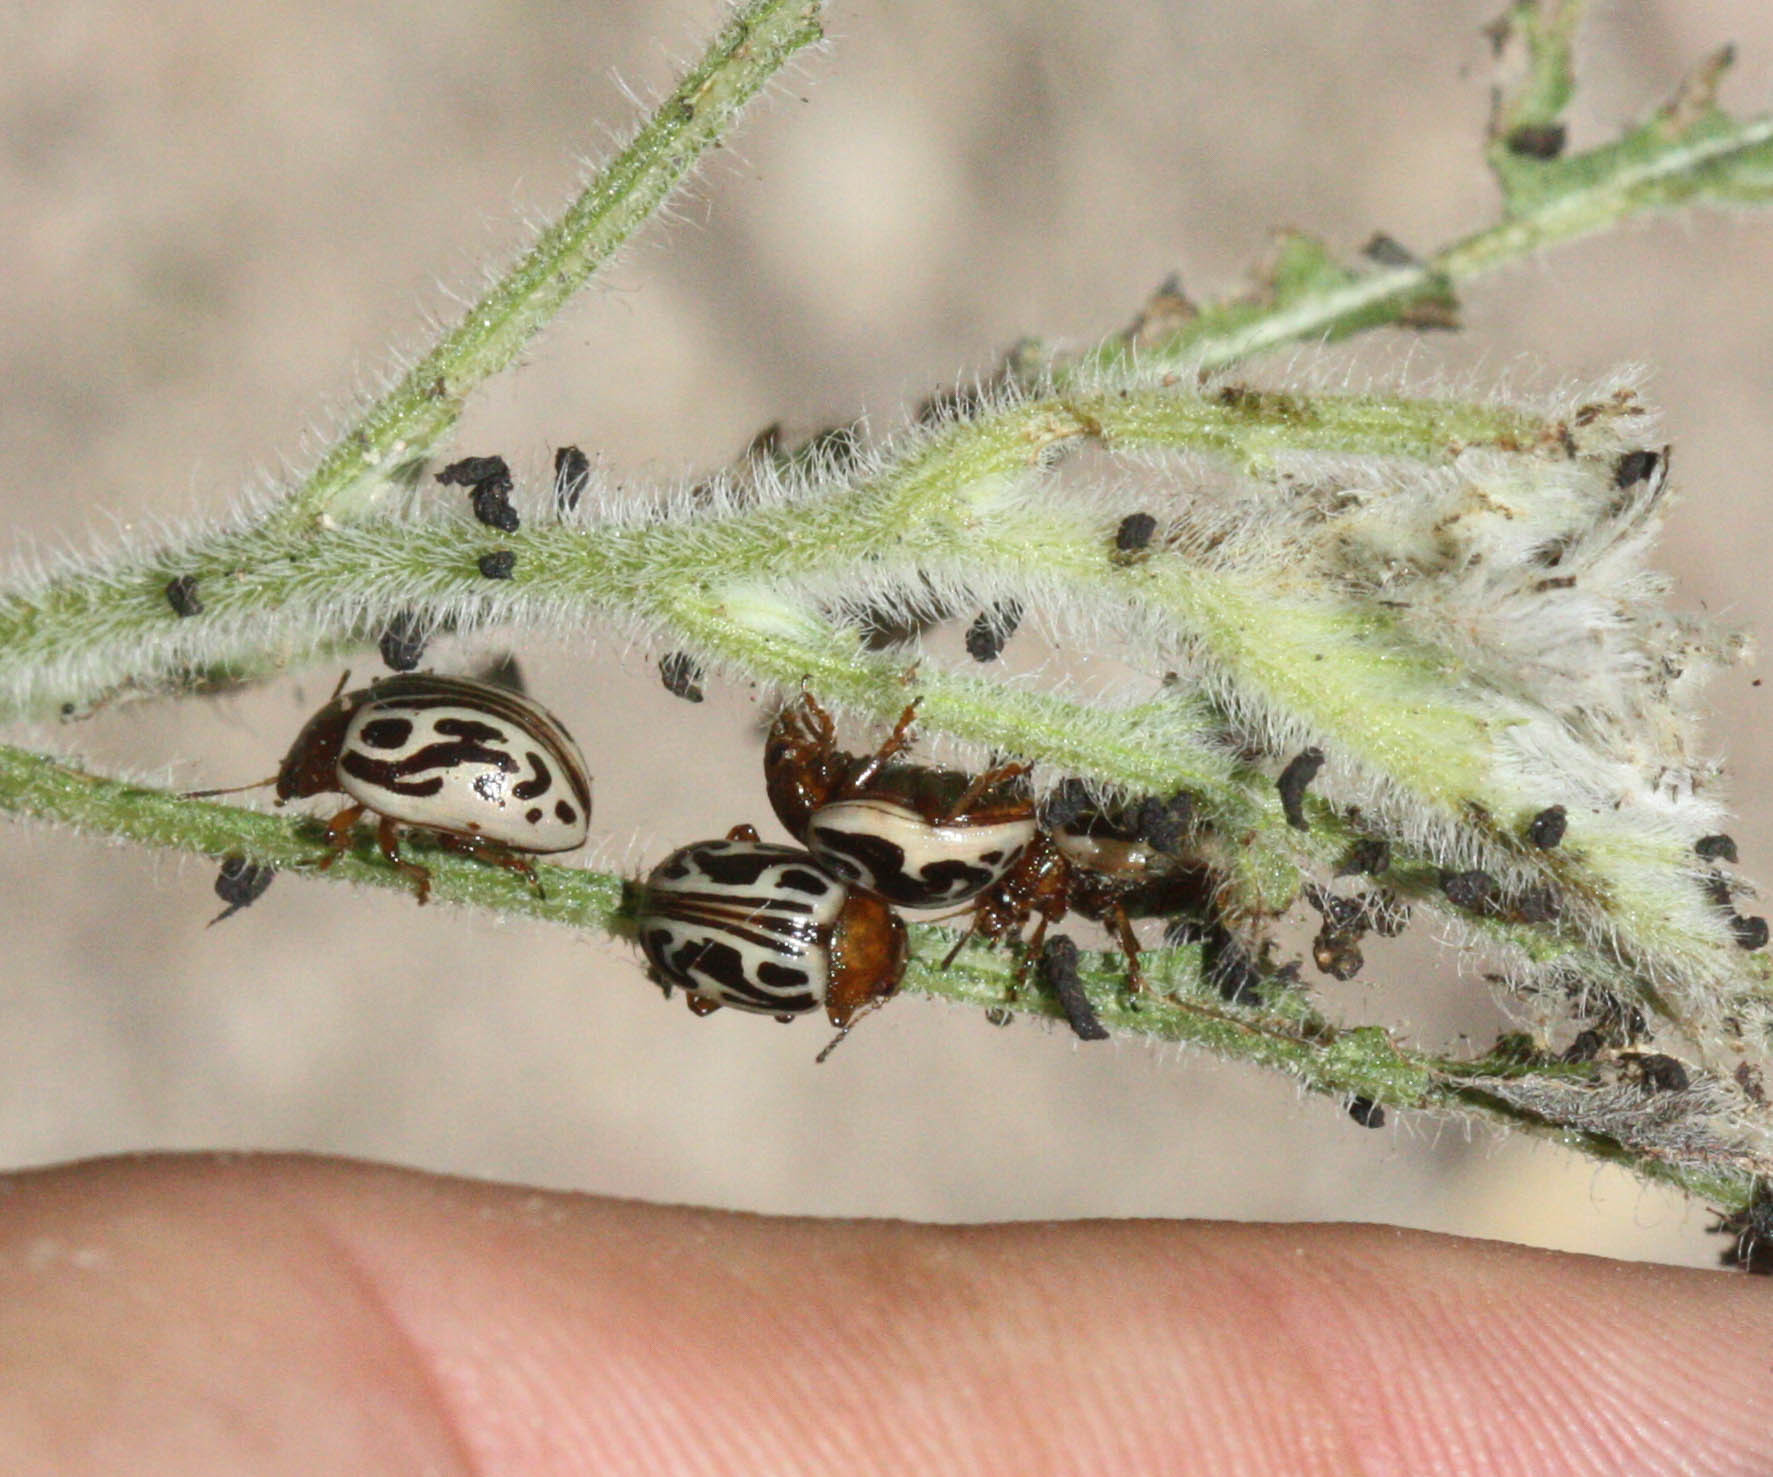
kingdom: Animalia
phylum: Arthropoda
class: Insecta
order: Coleoptera
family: Chrysomelidae
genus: Calligrapha
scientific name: Calligrapha
